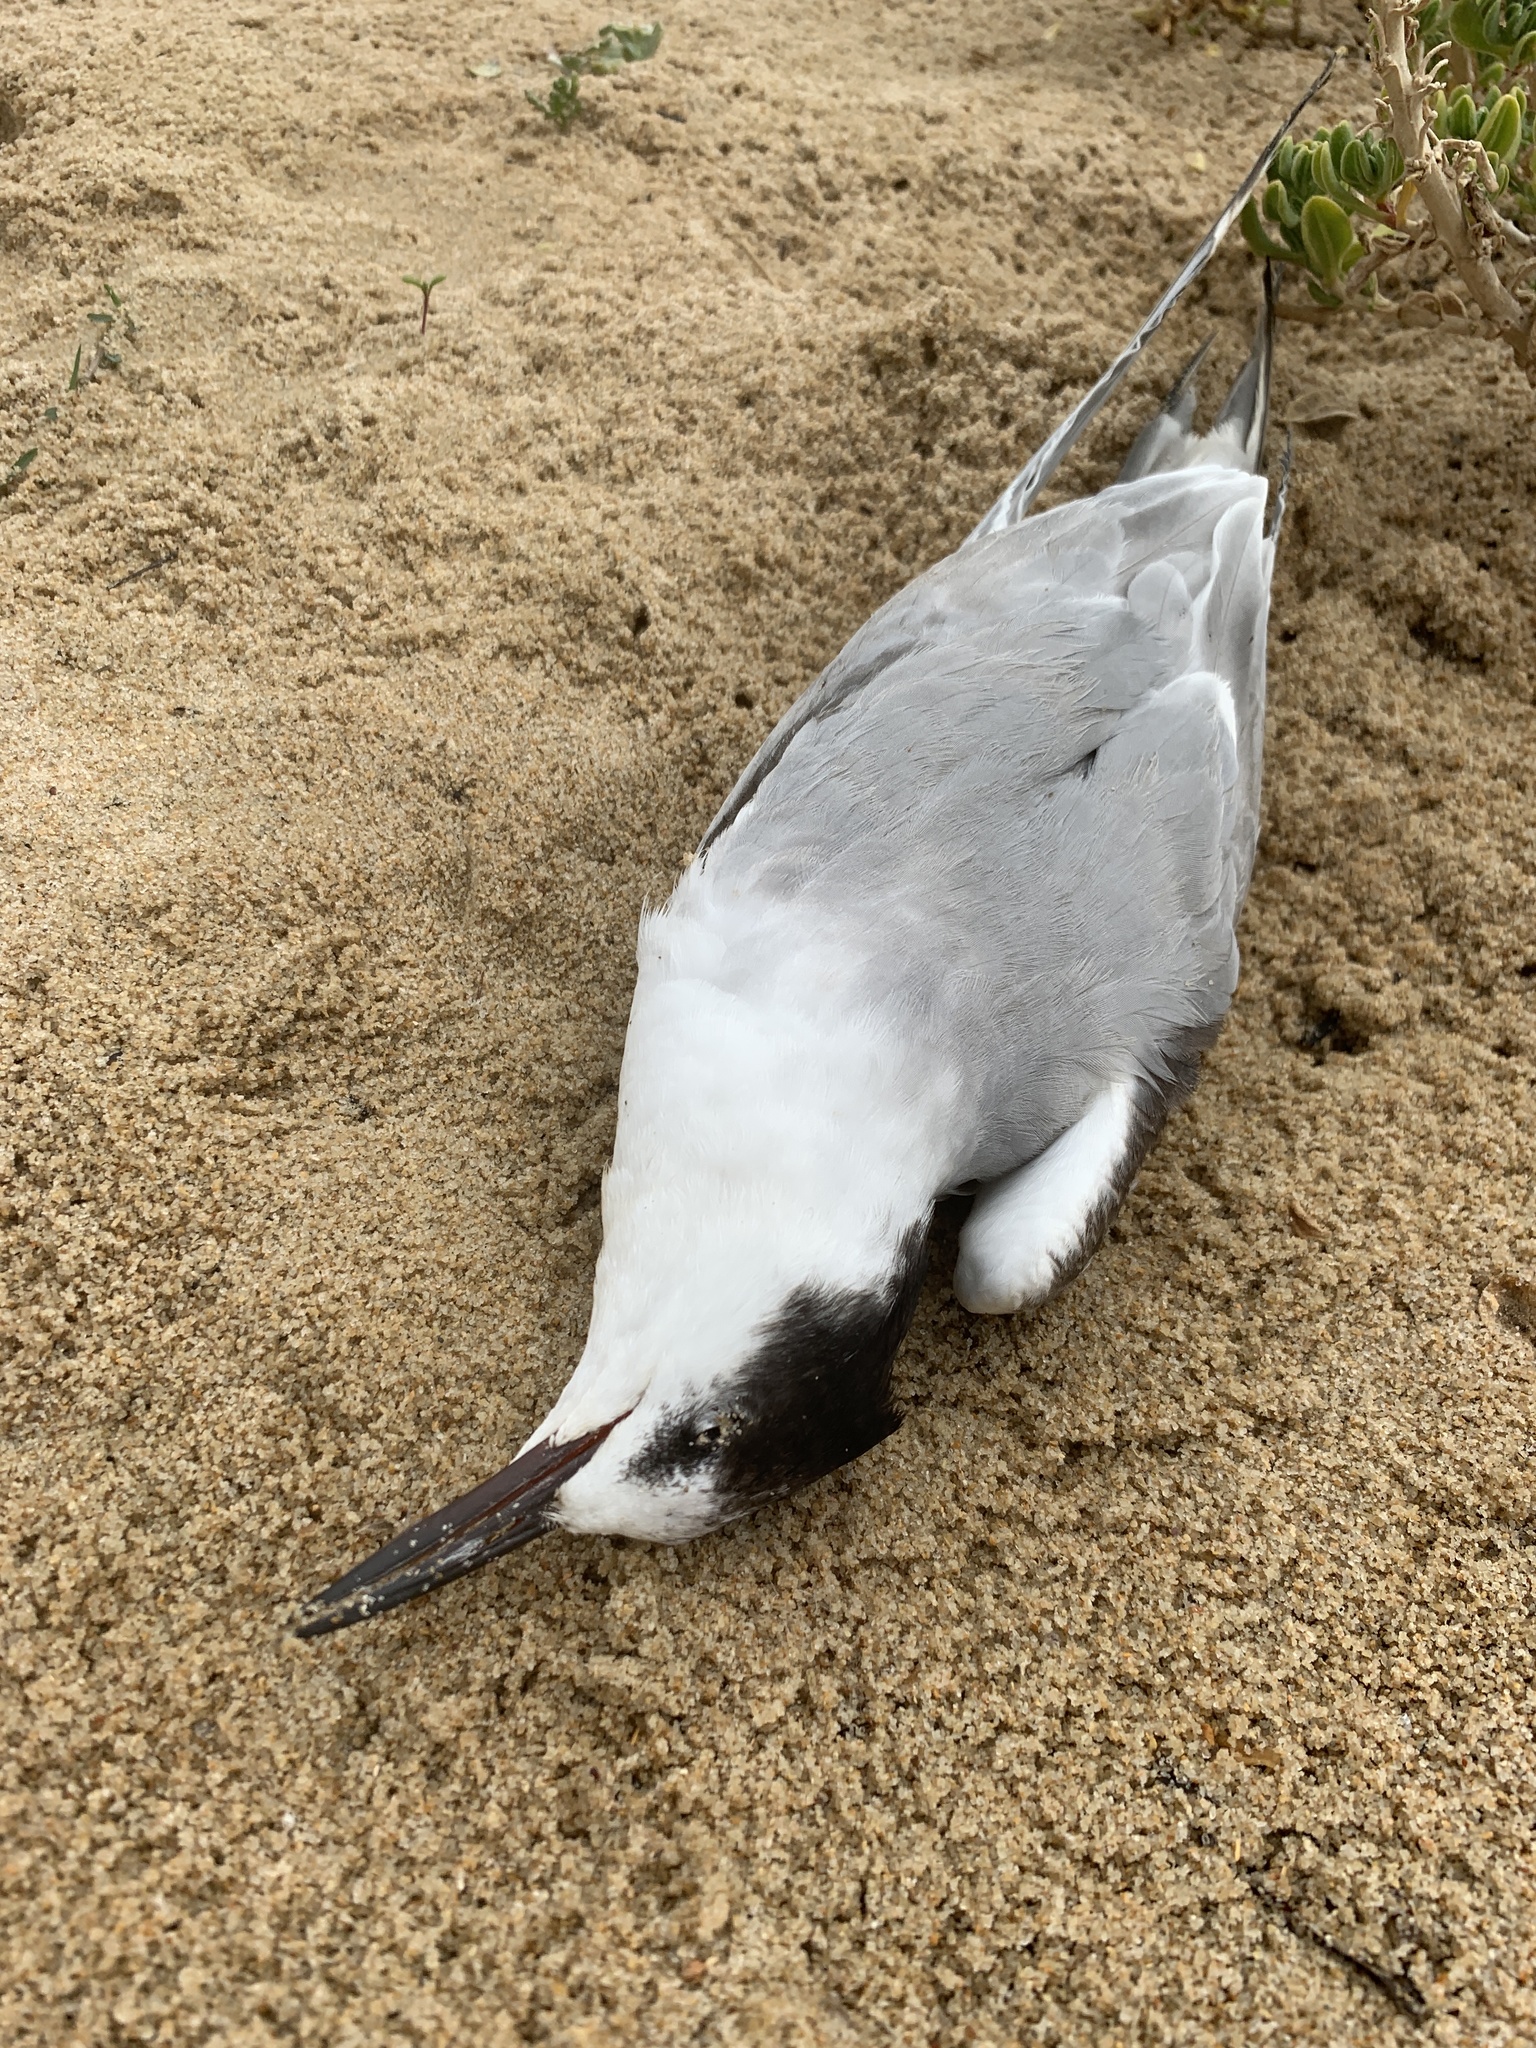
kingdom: Animalia
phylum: Chordata
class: Aves
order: Charadriiformes
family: Laridae
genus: Sterna
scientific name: Sterna hirundo
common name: Common tern
